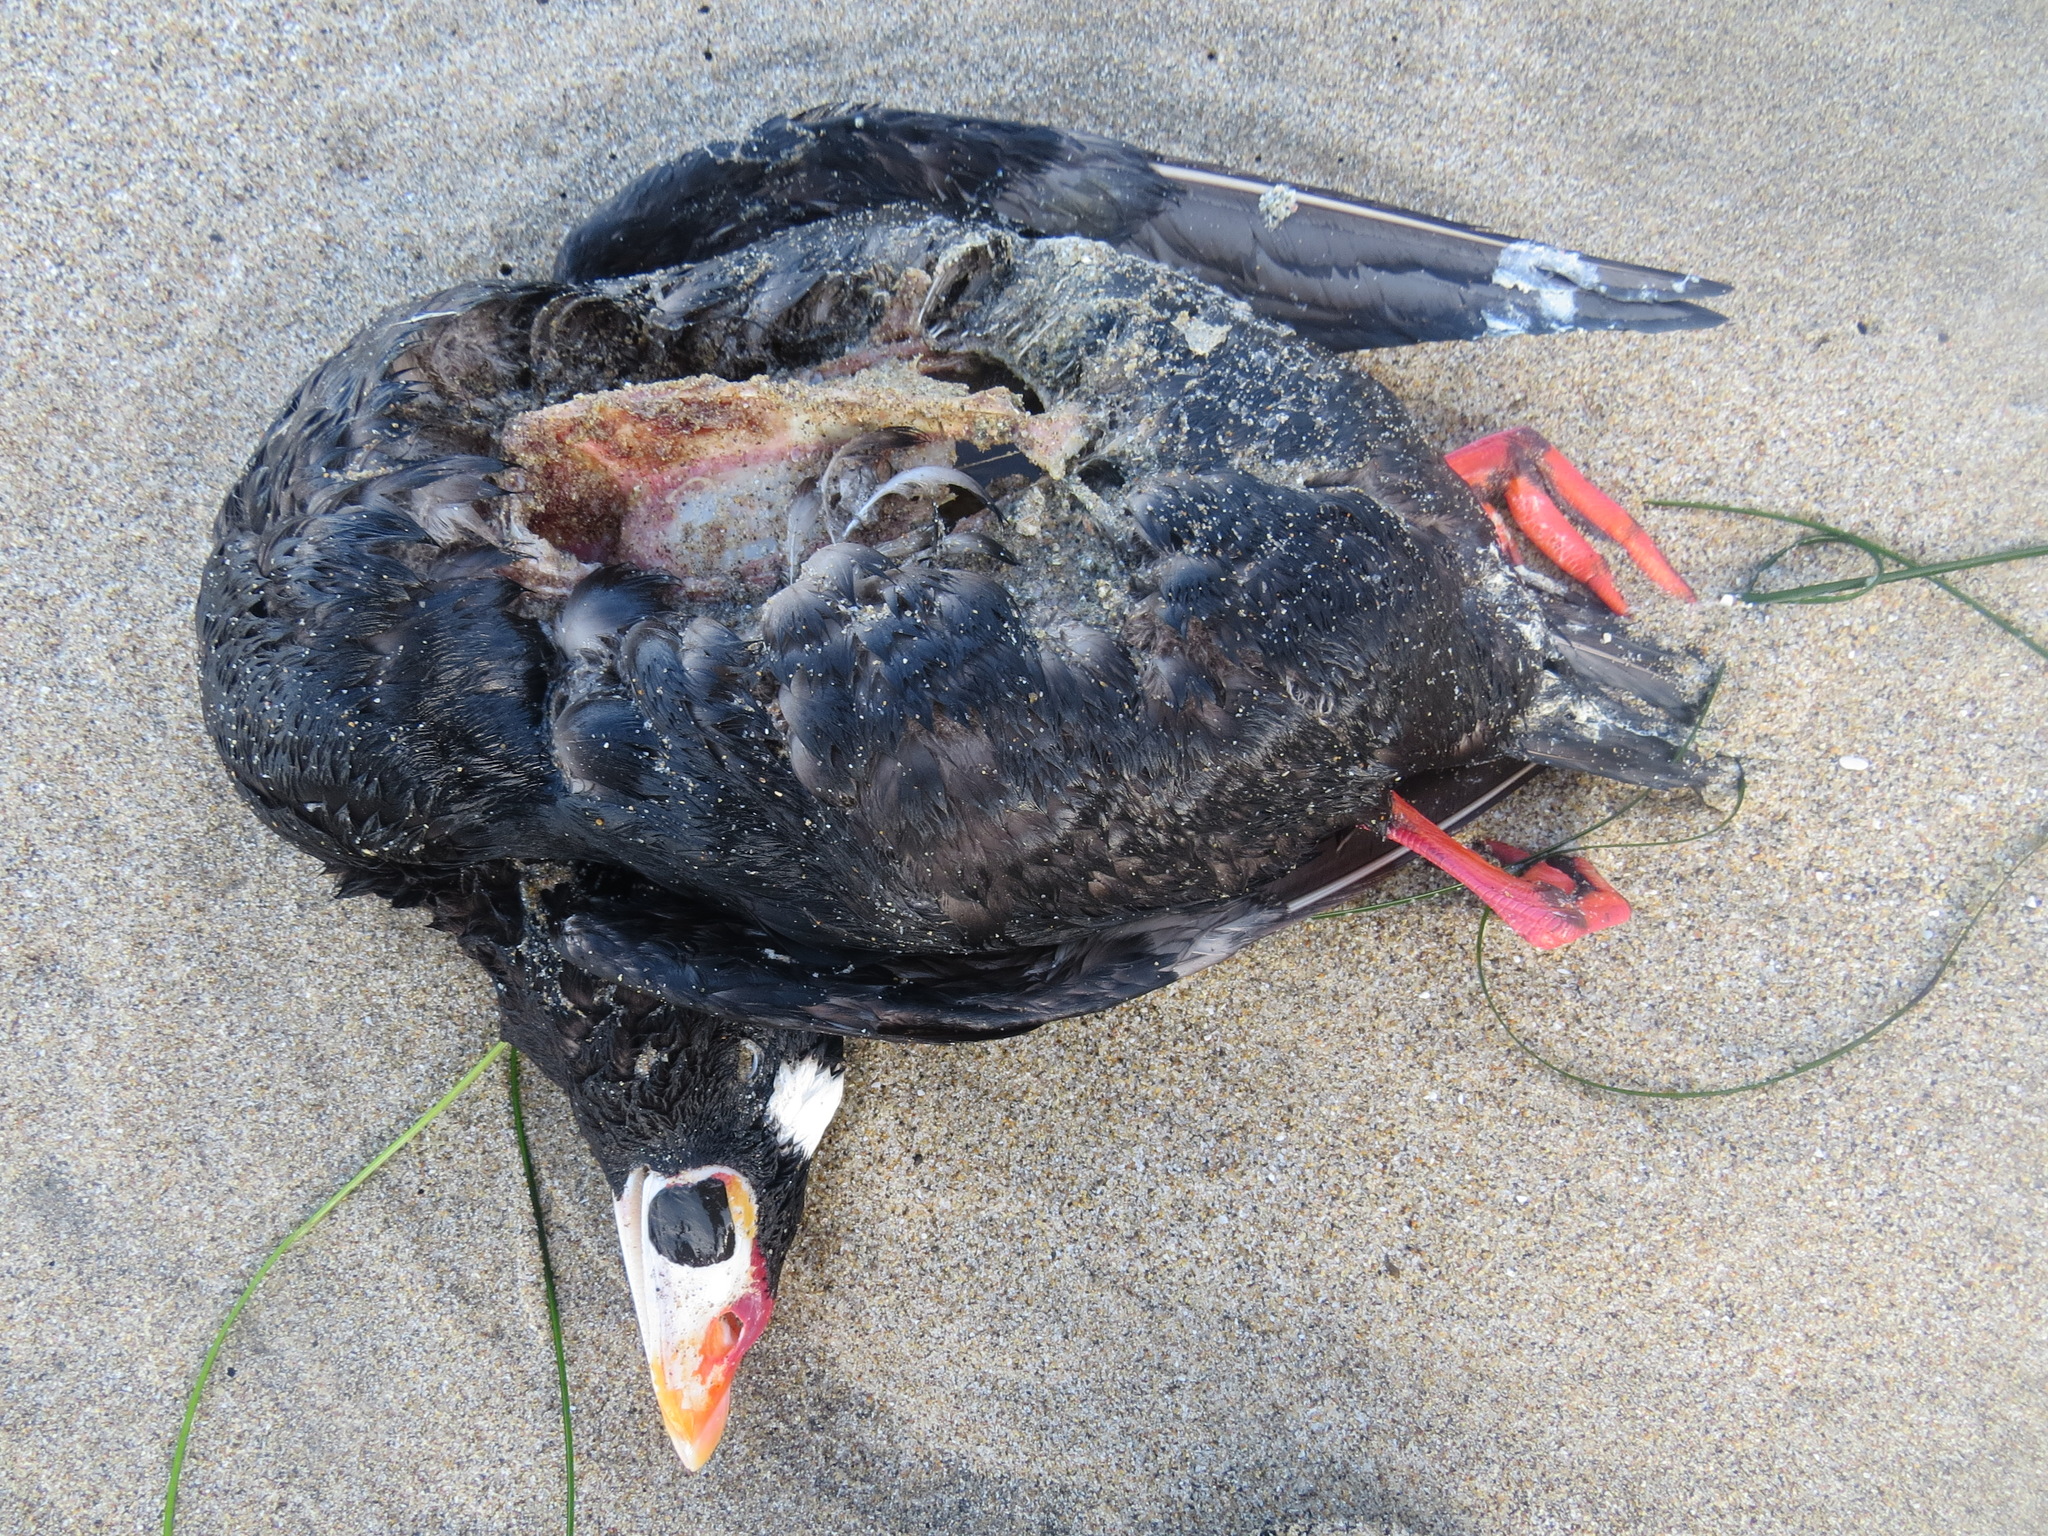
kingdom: Animalia
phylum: Chordata
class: Aves
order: Anseriformes
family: Anatidae
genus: Melanitta
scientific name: Melanitta perspicillata
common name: Surf scoter
